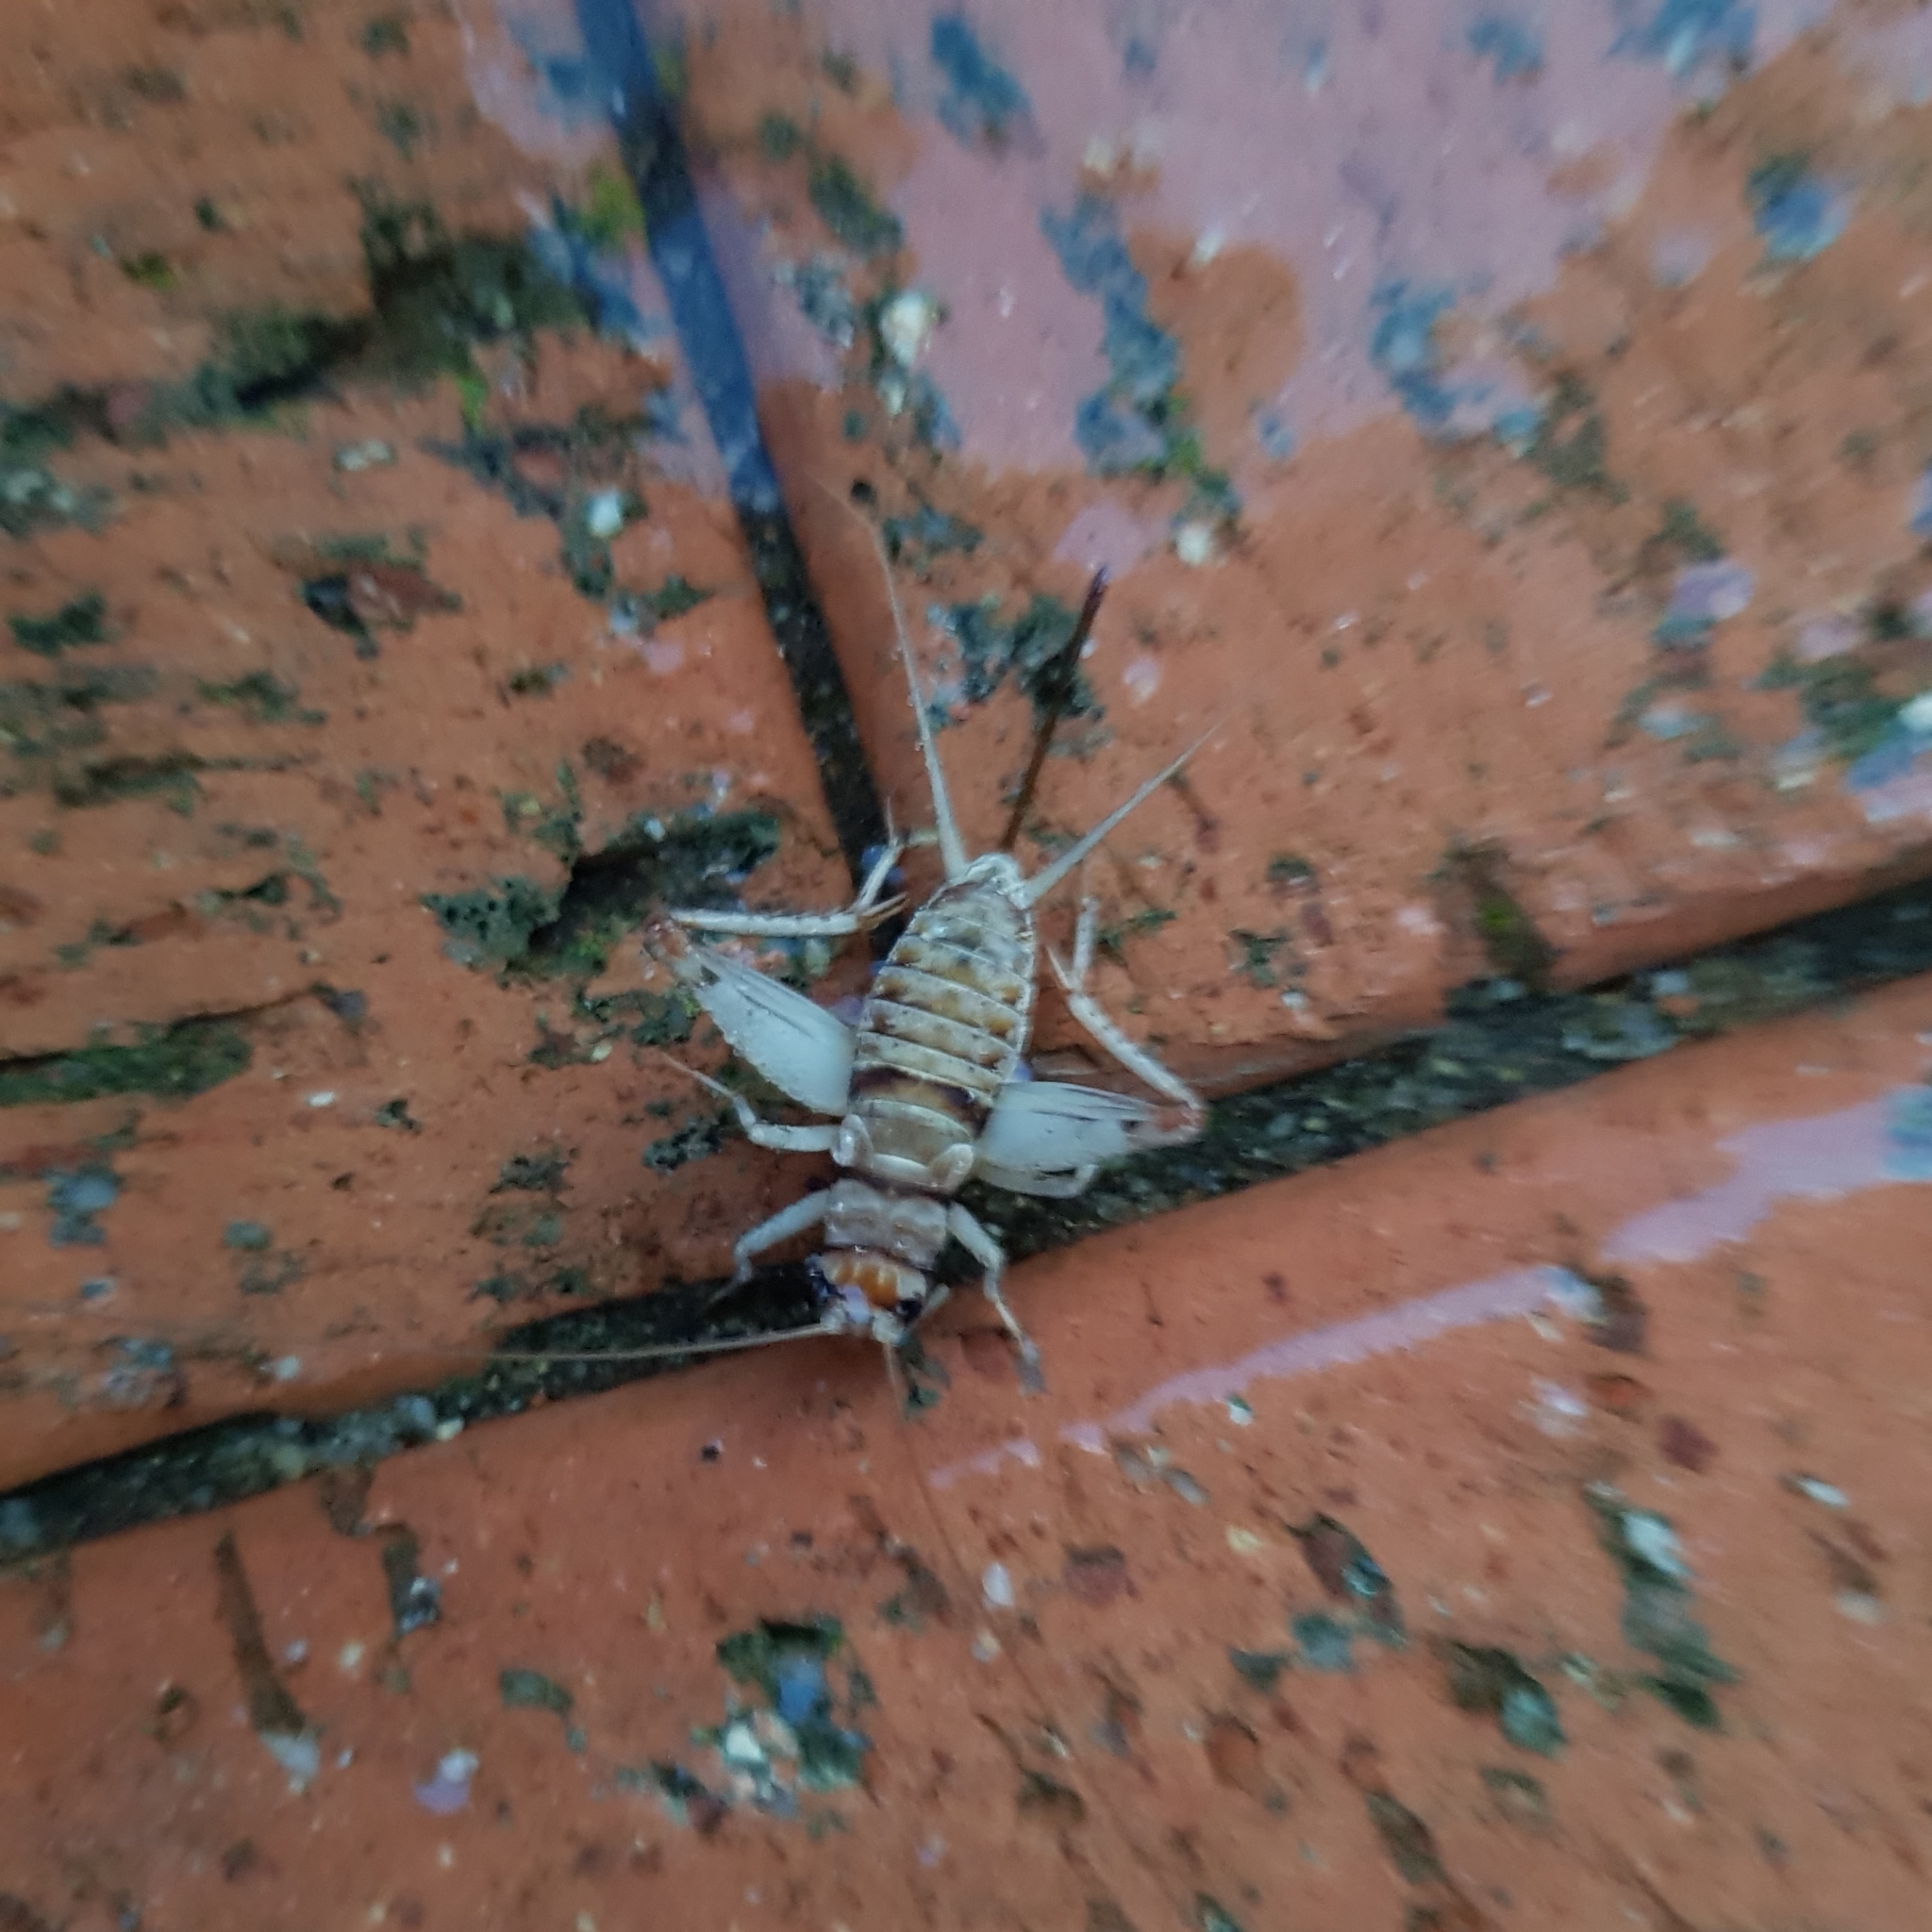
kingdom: Animalia
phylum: Arthropoda
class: Insecta
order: Orthoptera
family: Gryllidae
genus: Gryllodes
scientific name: Gryllodes sigillatus
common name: Tropical house cricket
